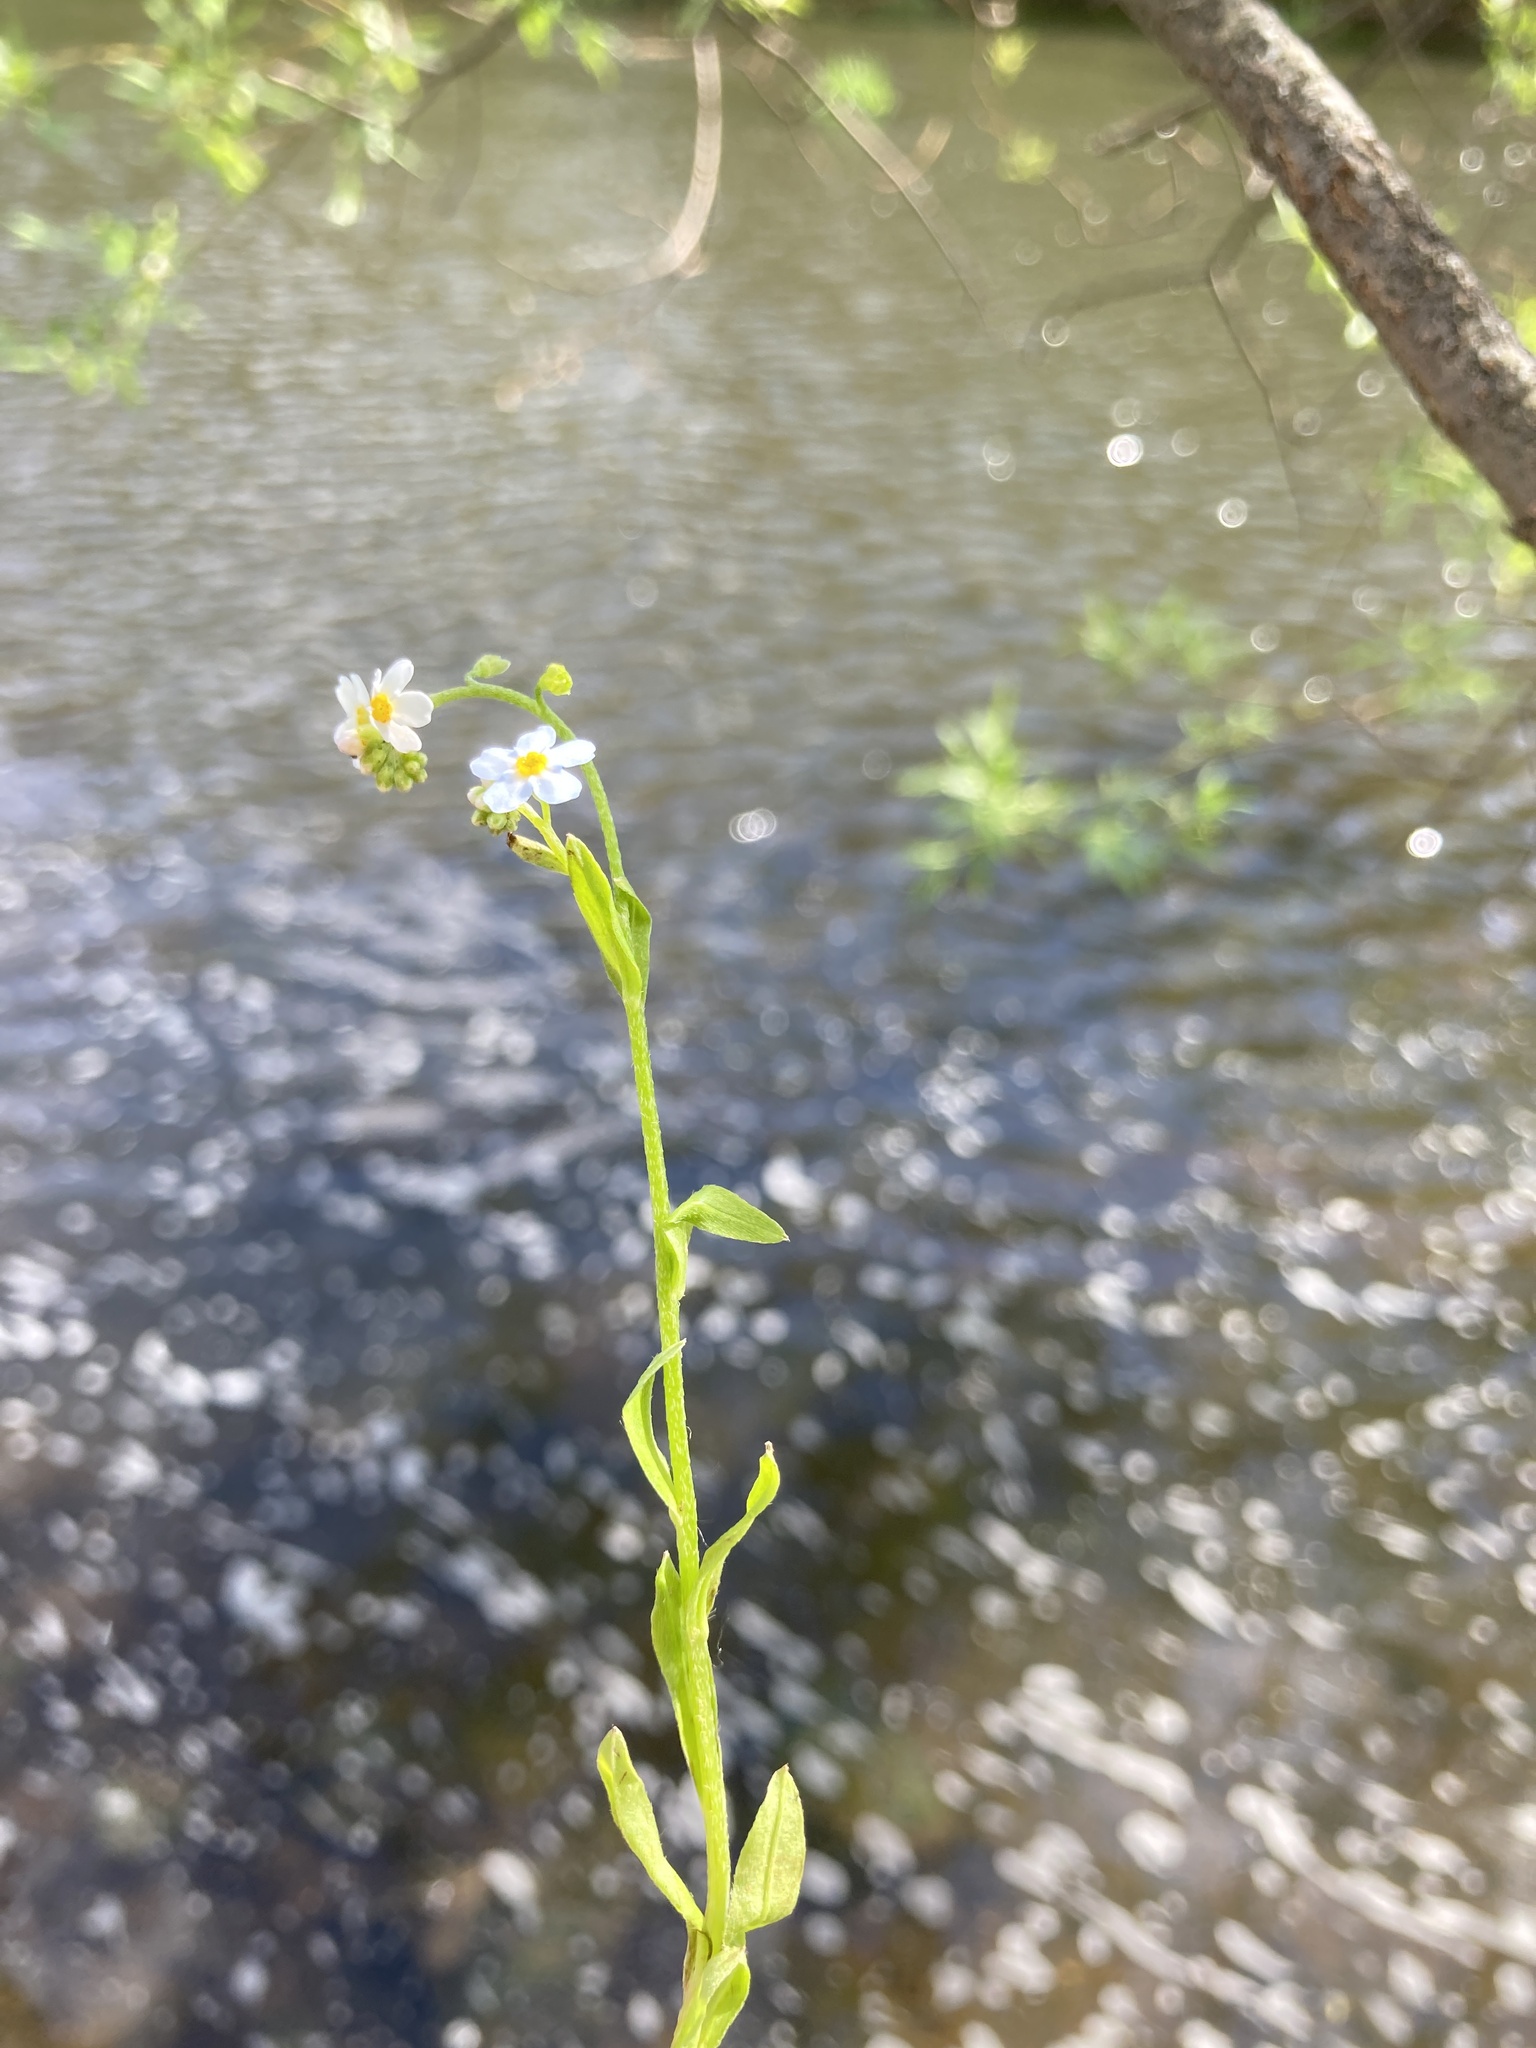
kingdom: Plantae
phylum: Tracheophyta
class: Magnoliopsida
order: Boraginales
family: Boraginaceae
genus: Myosotis
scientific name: Myosotis scorpioides
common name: Water forget-me-not
